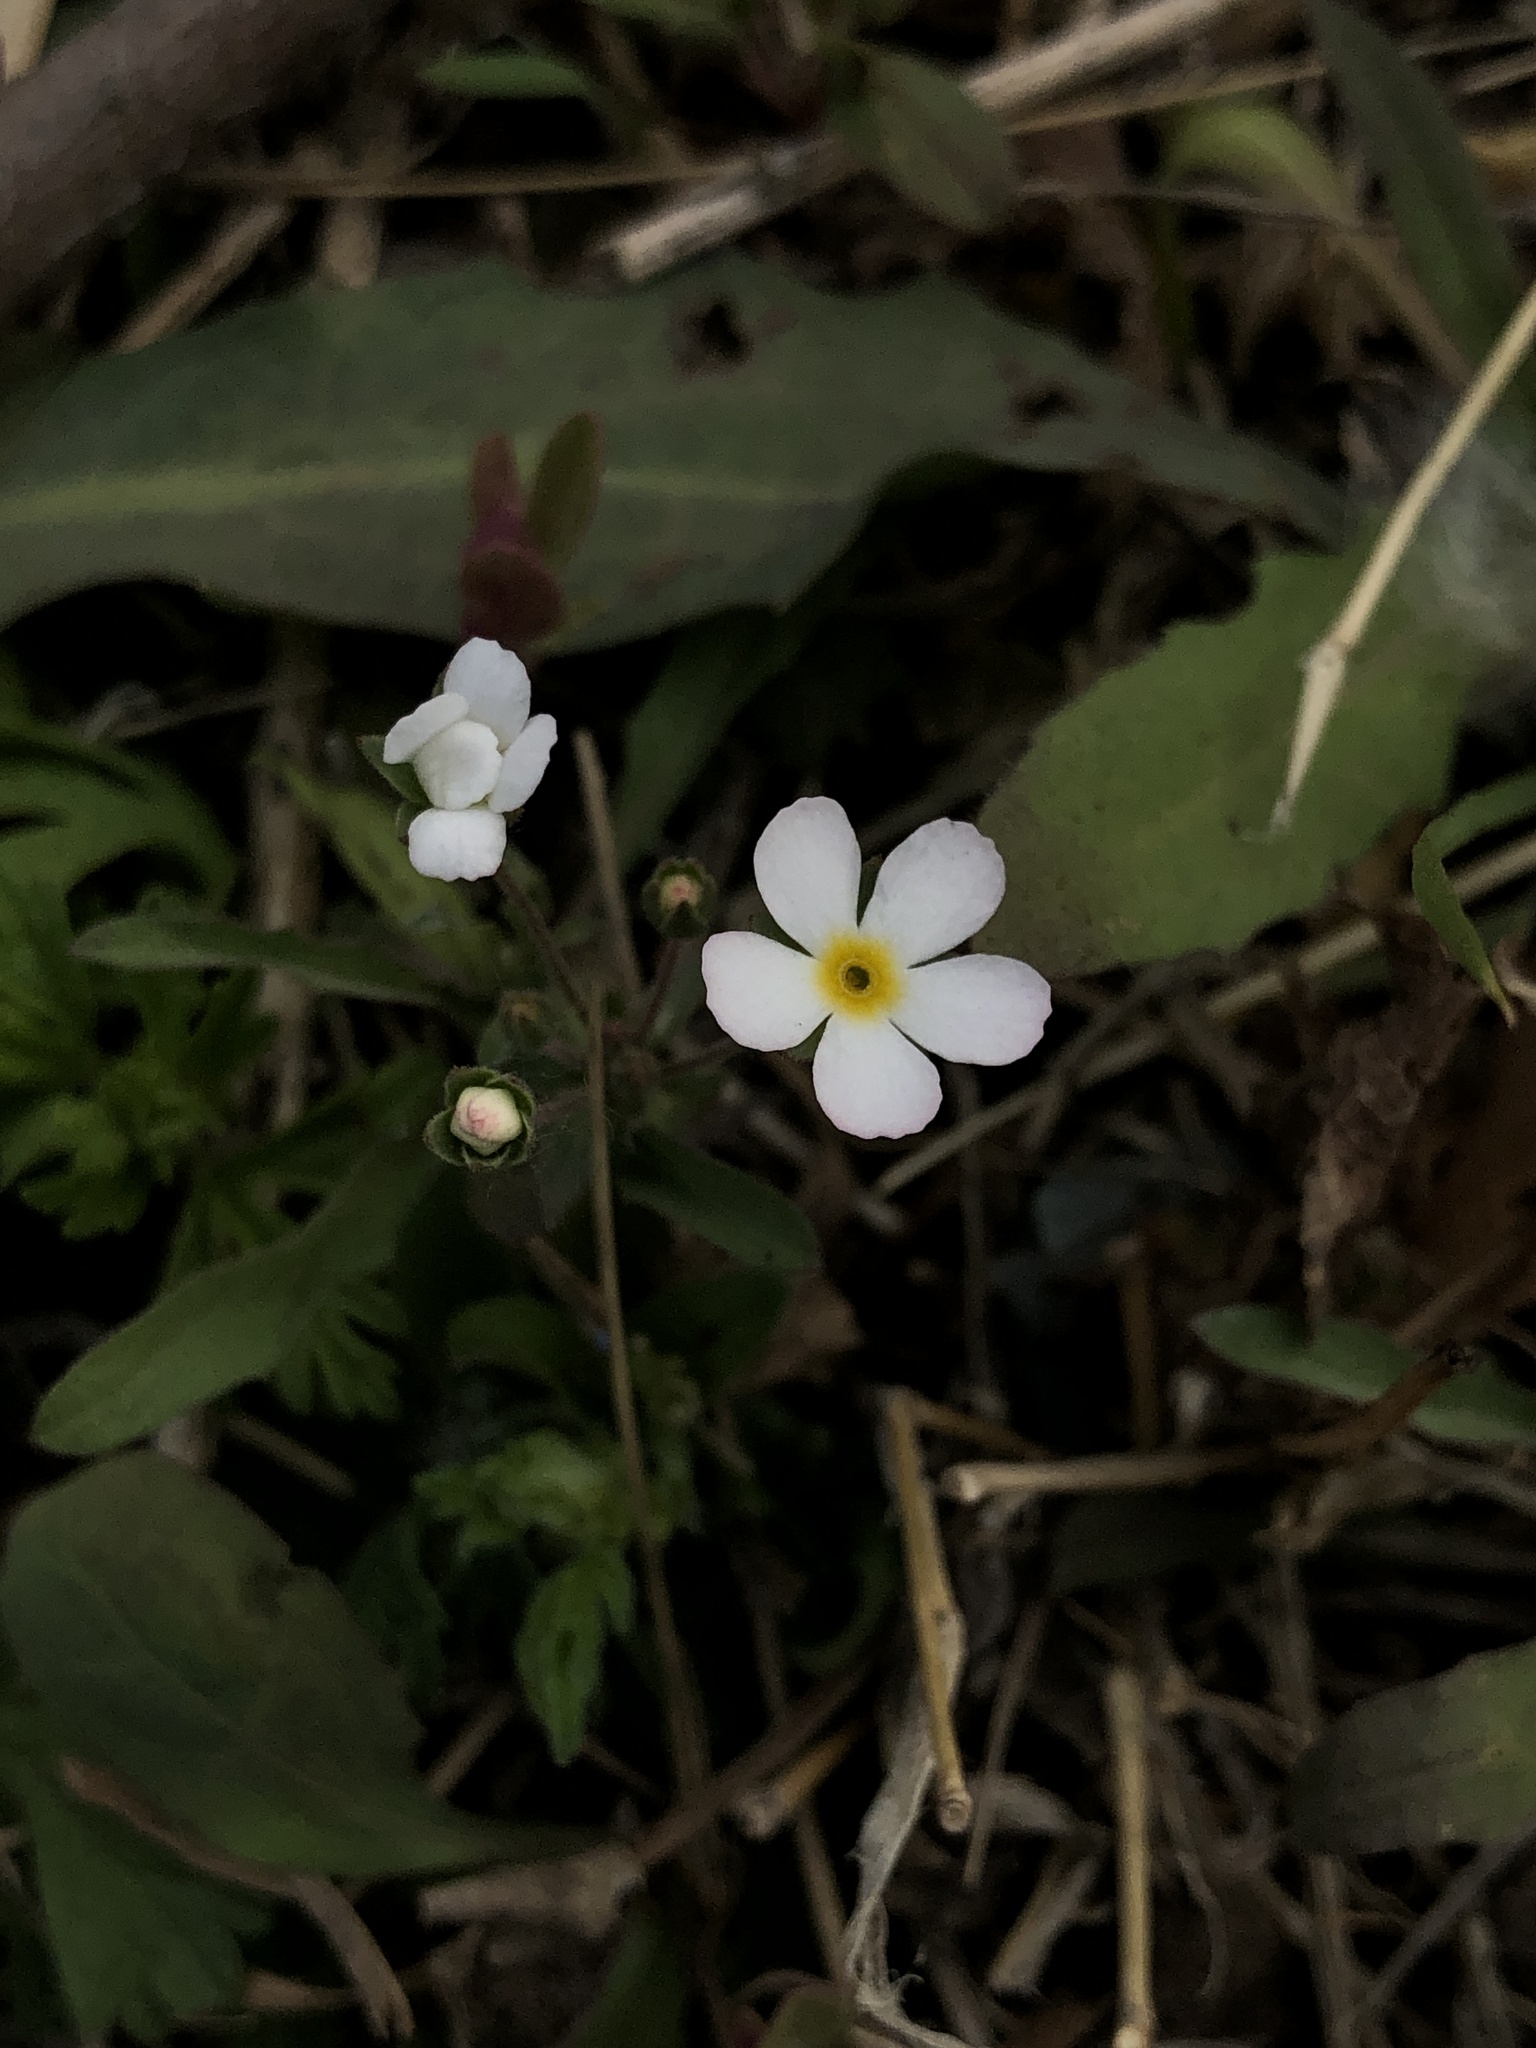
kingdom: Plantae
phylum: Tracheophyta
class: Magnoliopsida
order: Ericales
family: Primulaceae
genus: Androsace
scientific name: Androsace umbellata
